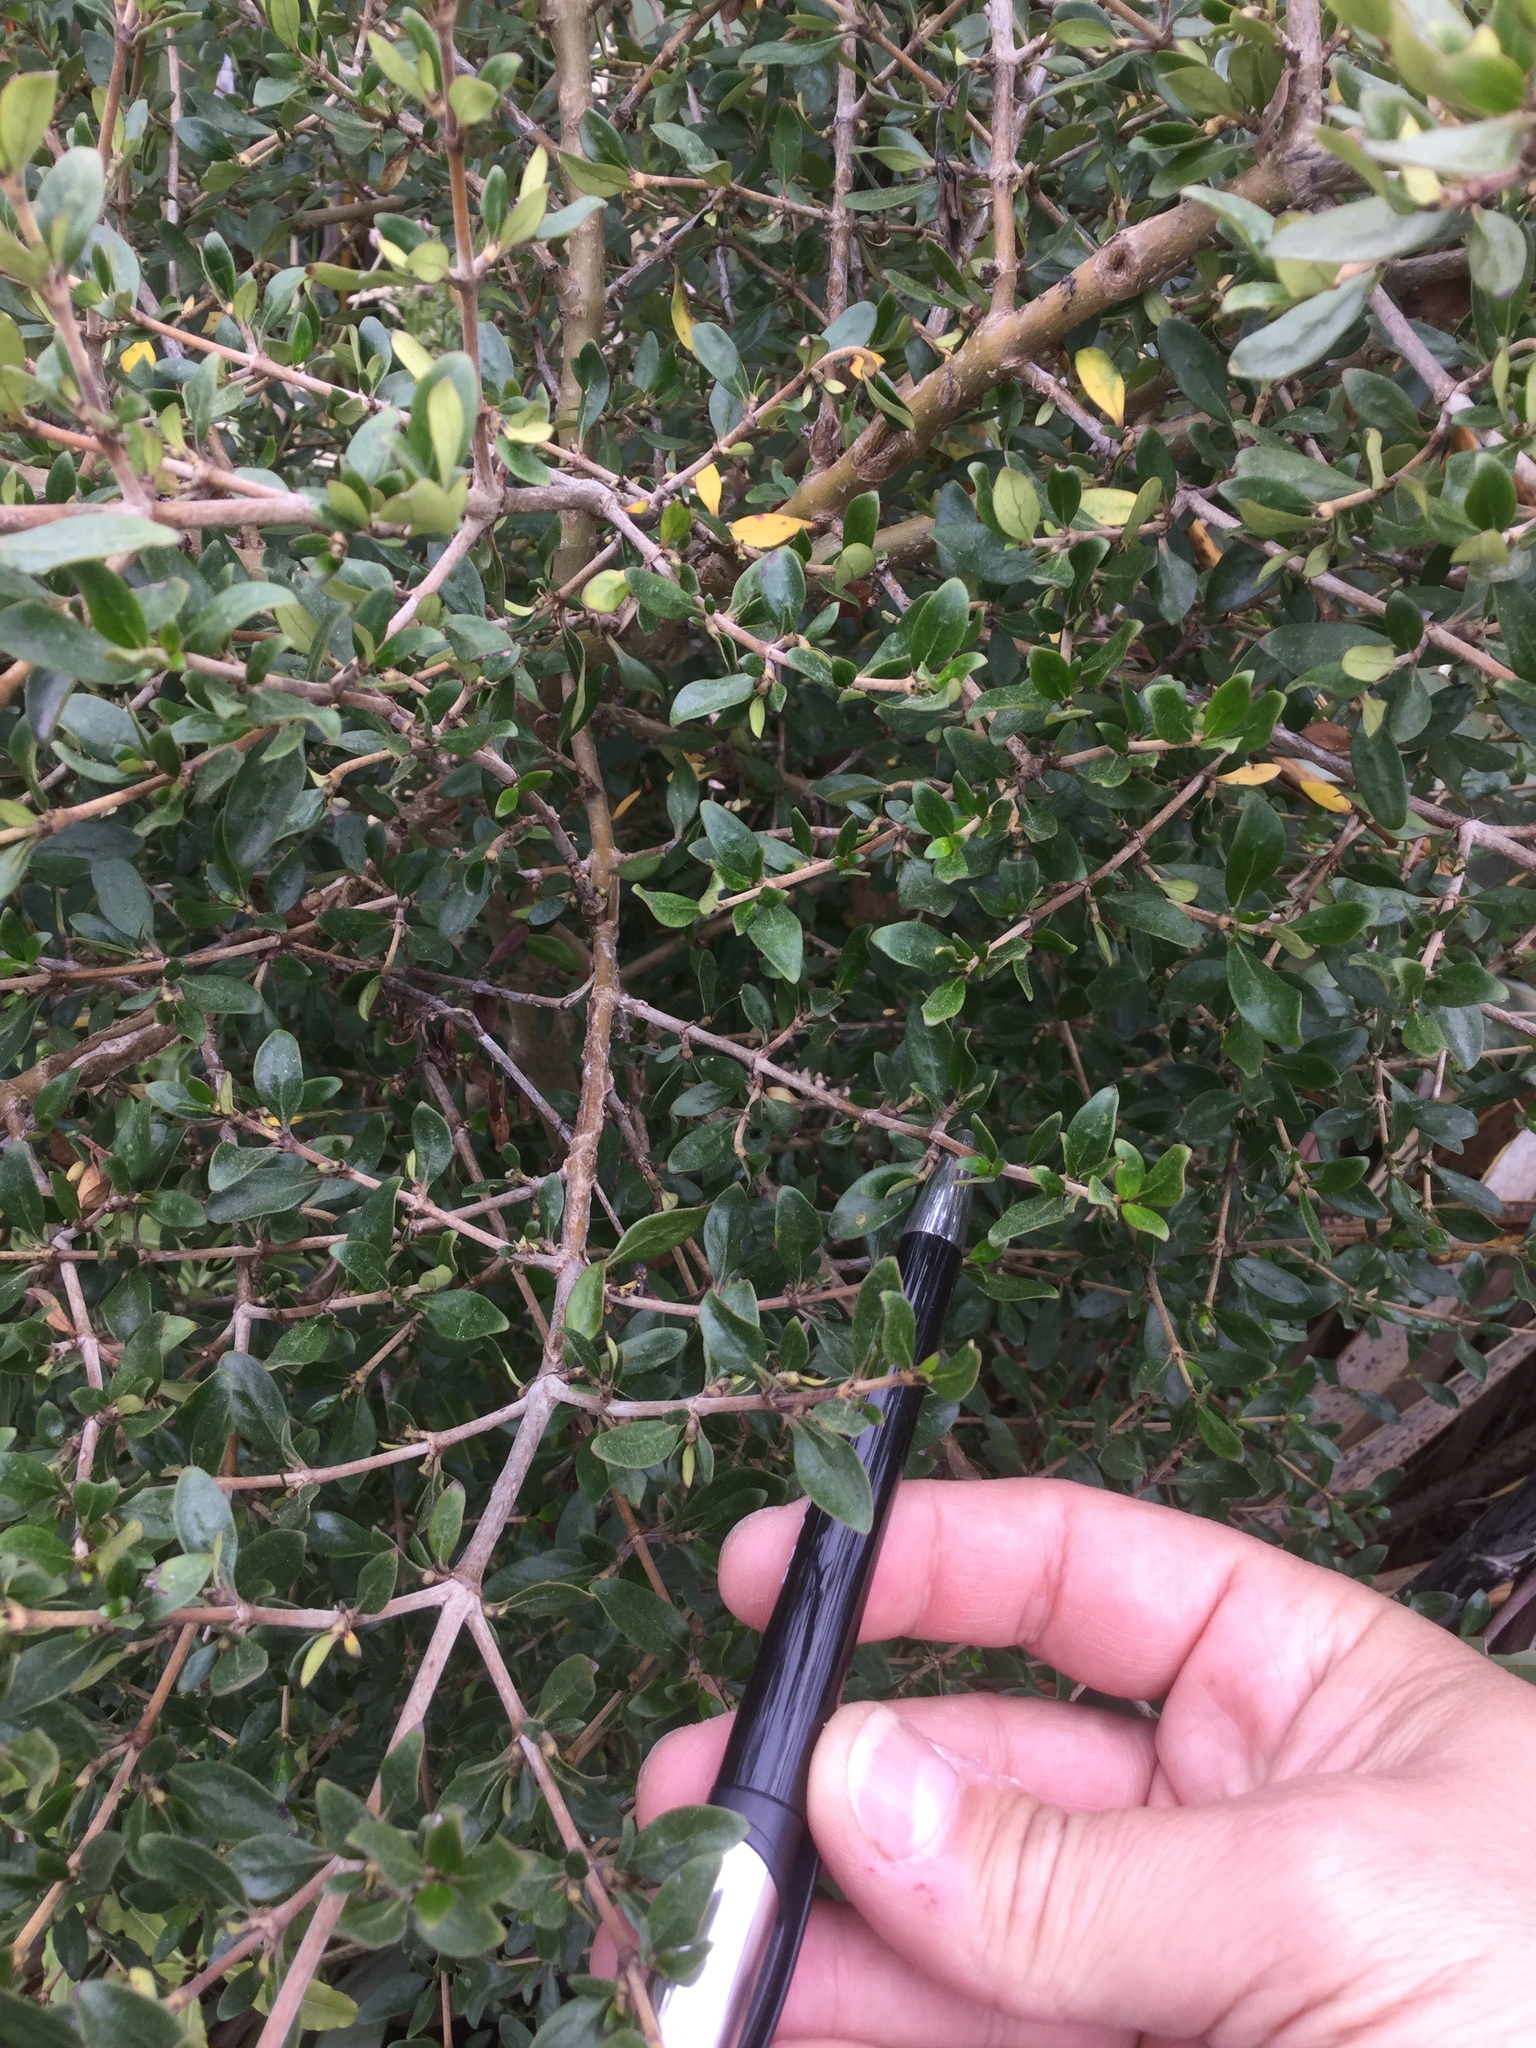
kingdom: Plantae
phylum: Tracheophyta
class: Magnoliopsida
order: Gentianales
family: Rubiaceae
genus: Coprosma
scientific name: Coprosma cunninghamii
